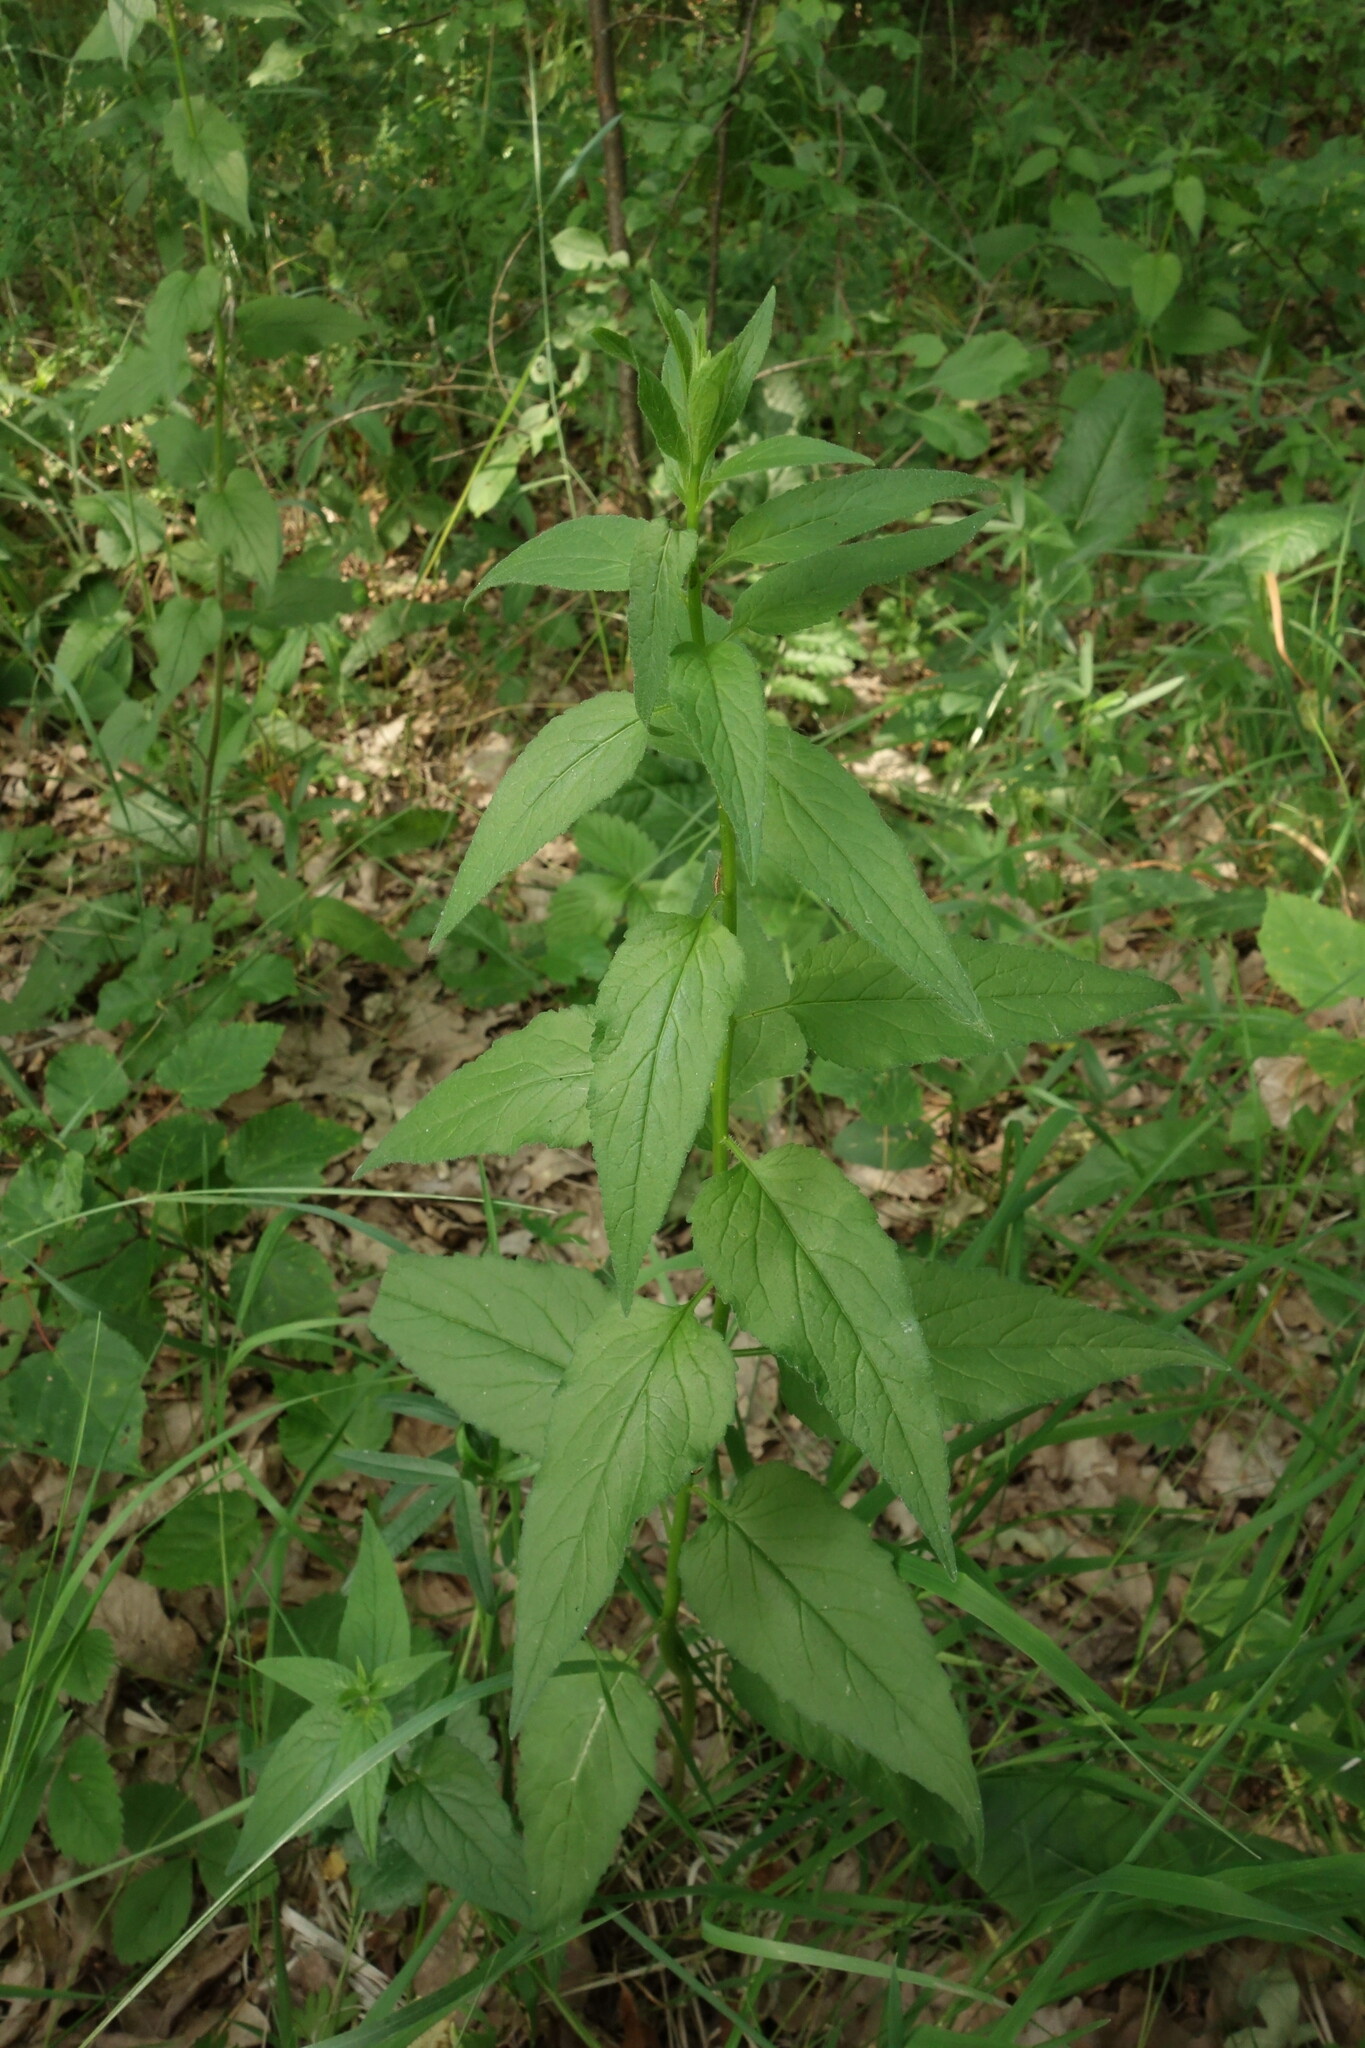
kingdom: Plantae
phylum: Tracheophyta
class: Magnoliopsida
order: Asterales
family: Campanulaceae
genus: Campanula
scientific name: Campanula rapunculoides
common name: Creeping bellflower
